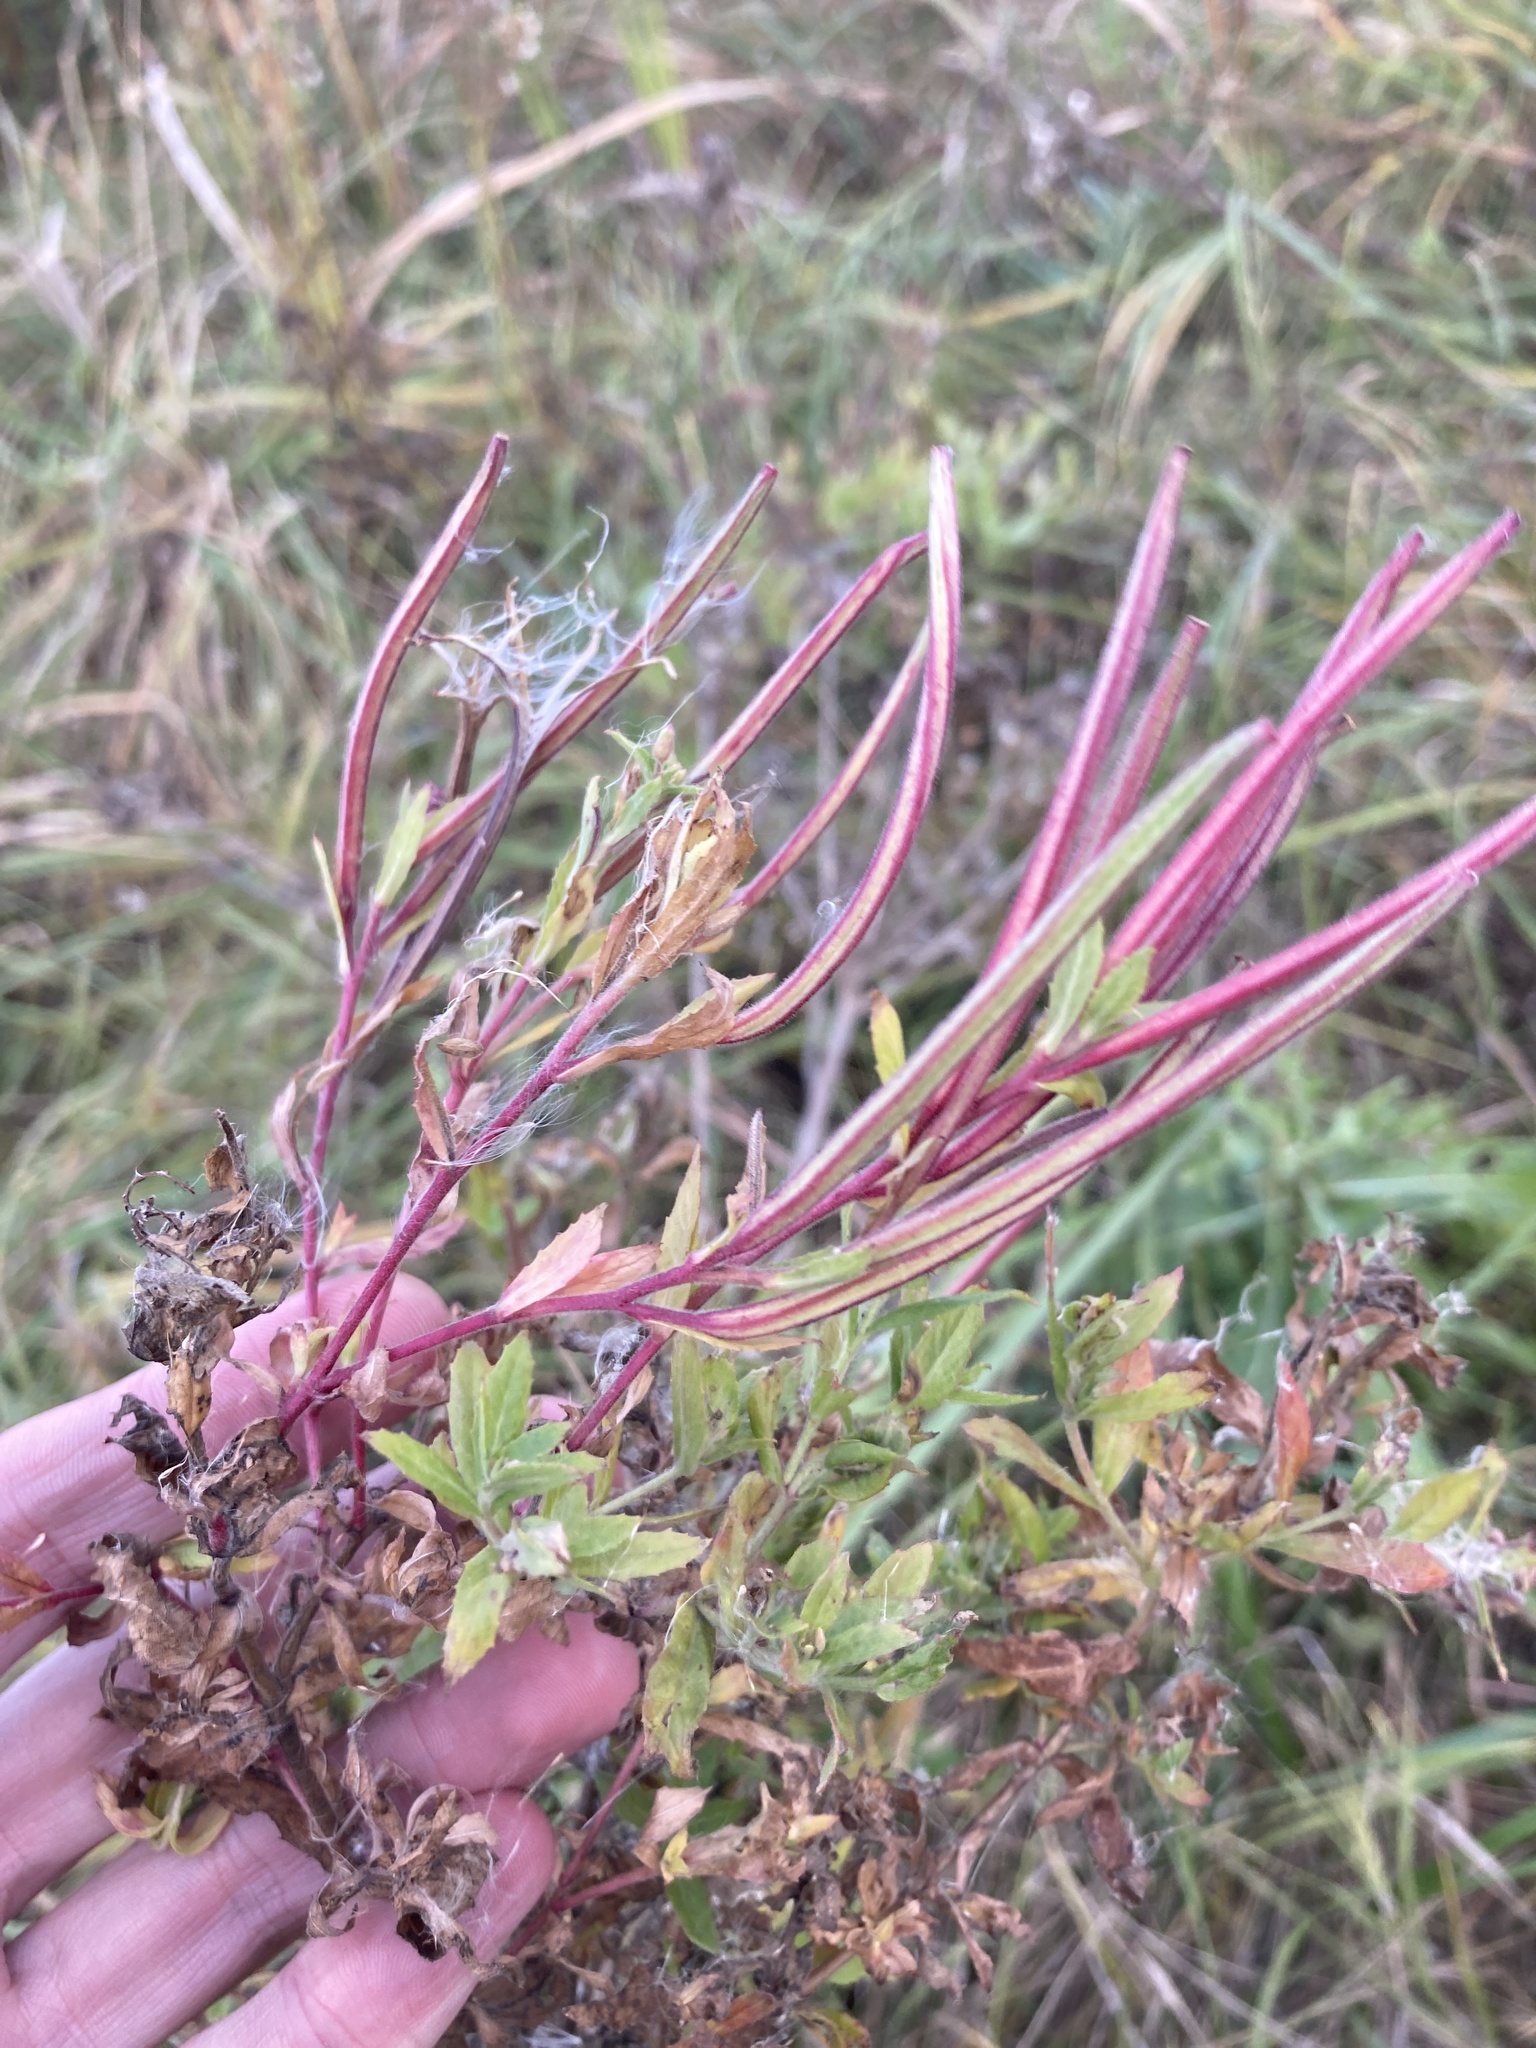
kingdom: Plantae
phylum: Tracheophyta
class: Magnoliopsida
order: Myrtales
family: Onagraceae
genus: Epilobium
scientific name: Epilobium hirsutum
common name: Great willowherb
